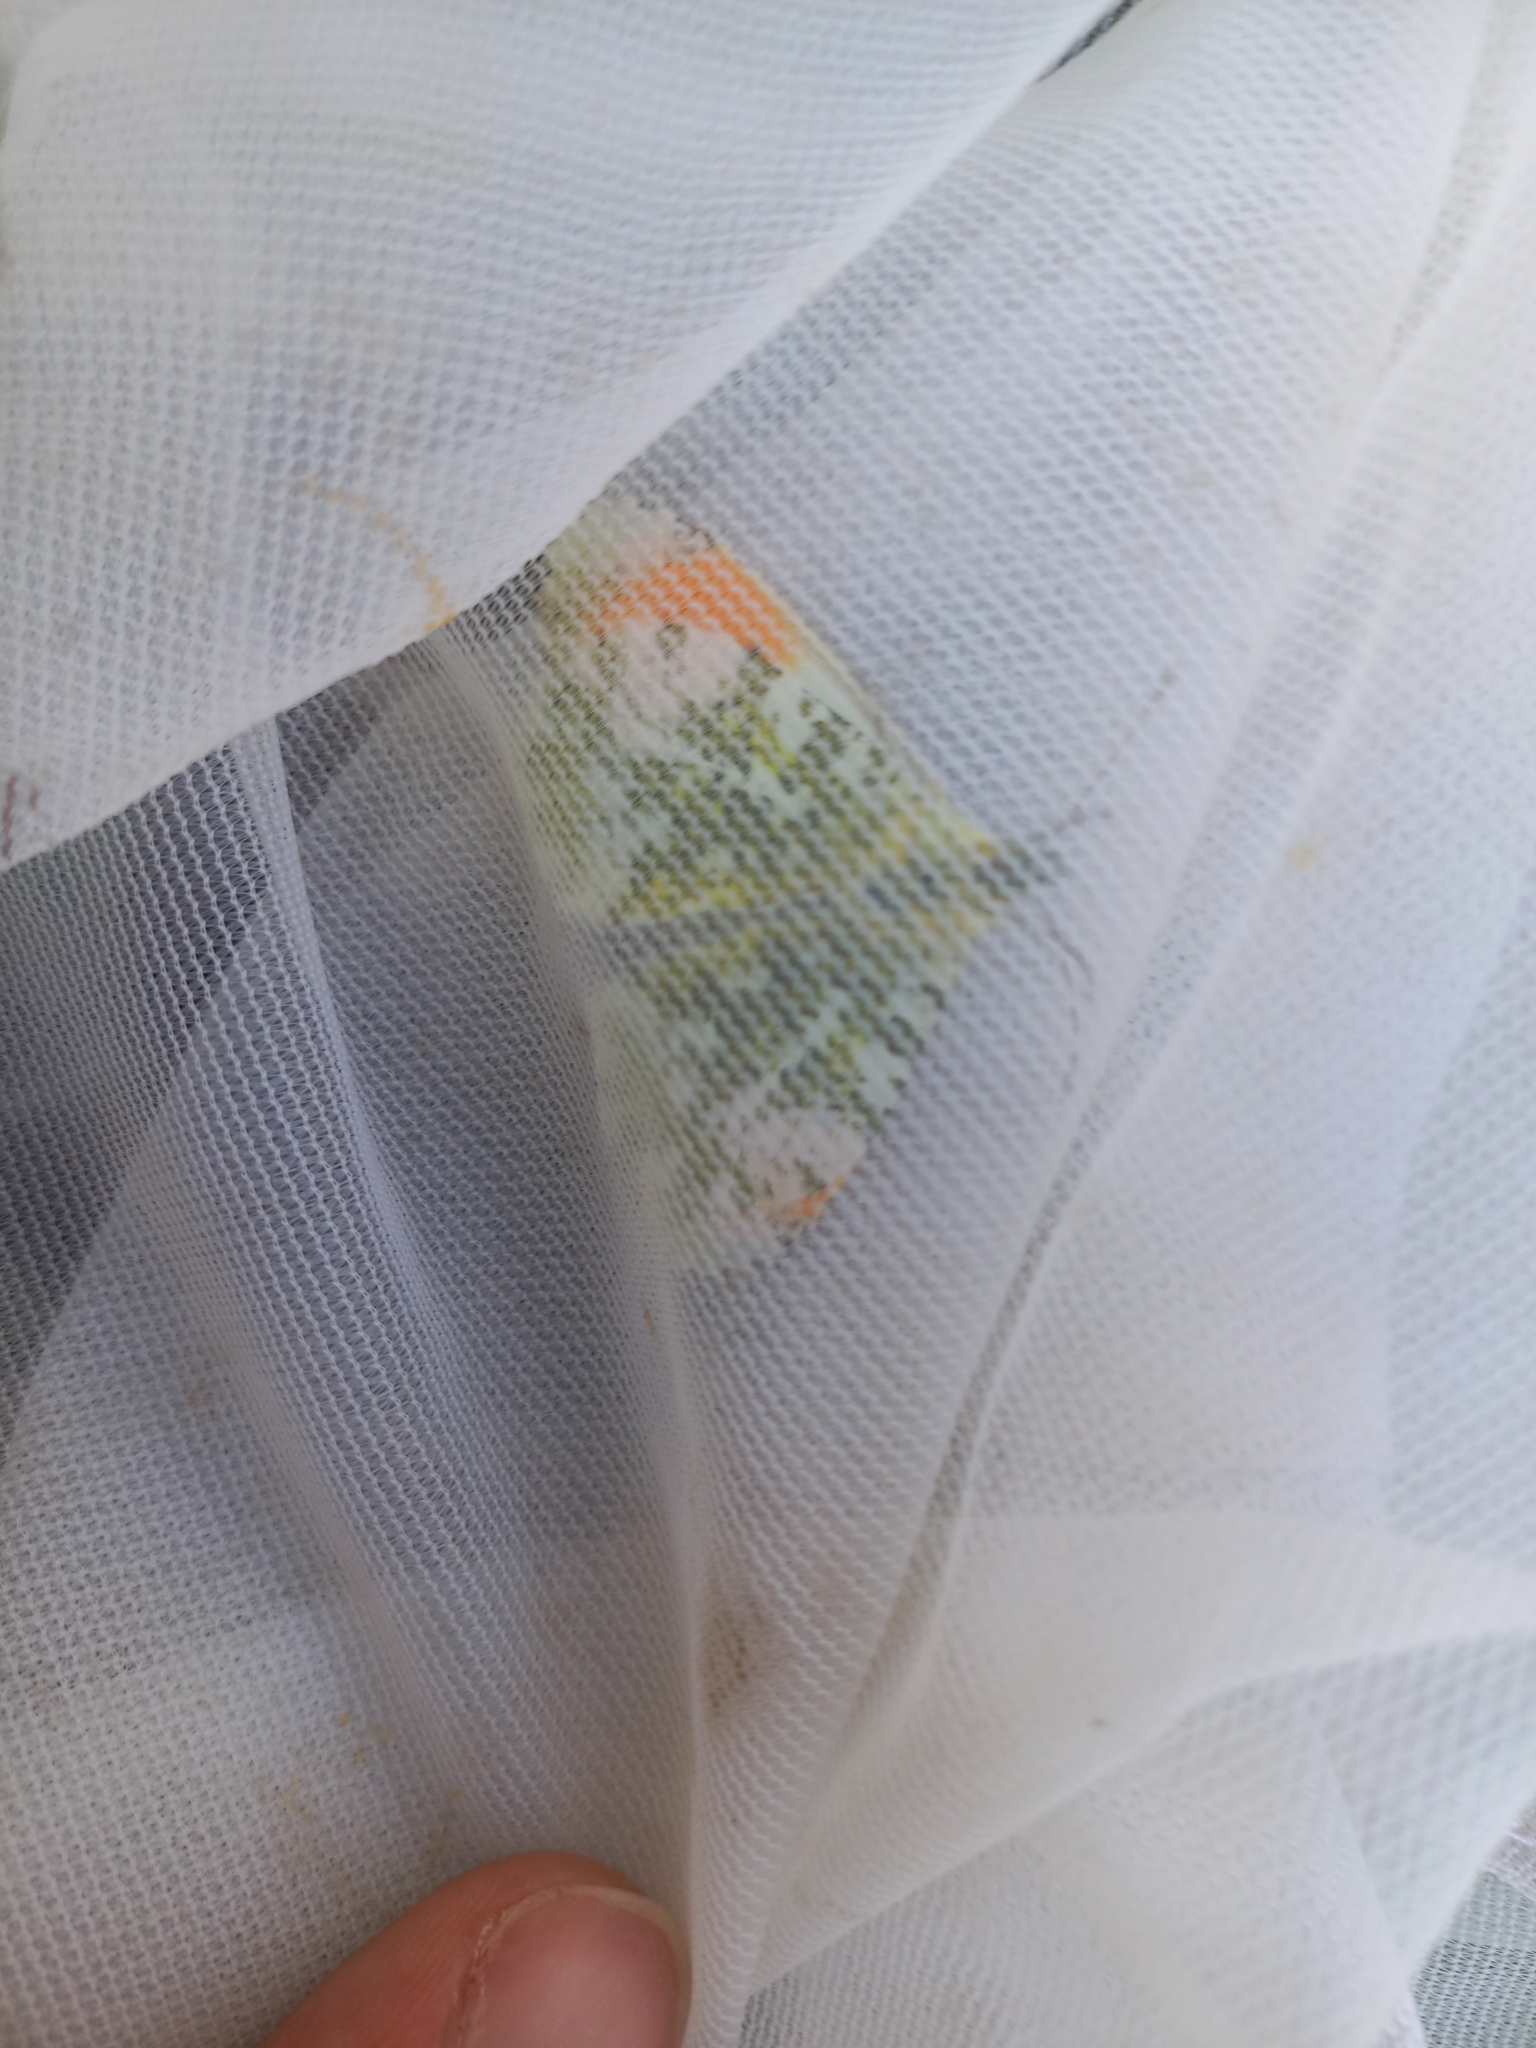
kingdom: Animalia
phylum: Arthropoda
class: Insecta
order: Lepidoptera
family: Pieridae
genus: Anthocharis
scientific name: Anthocharis cardamines
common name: Orange-tip
